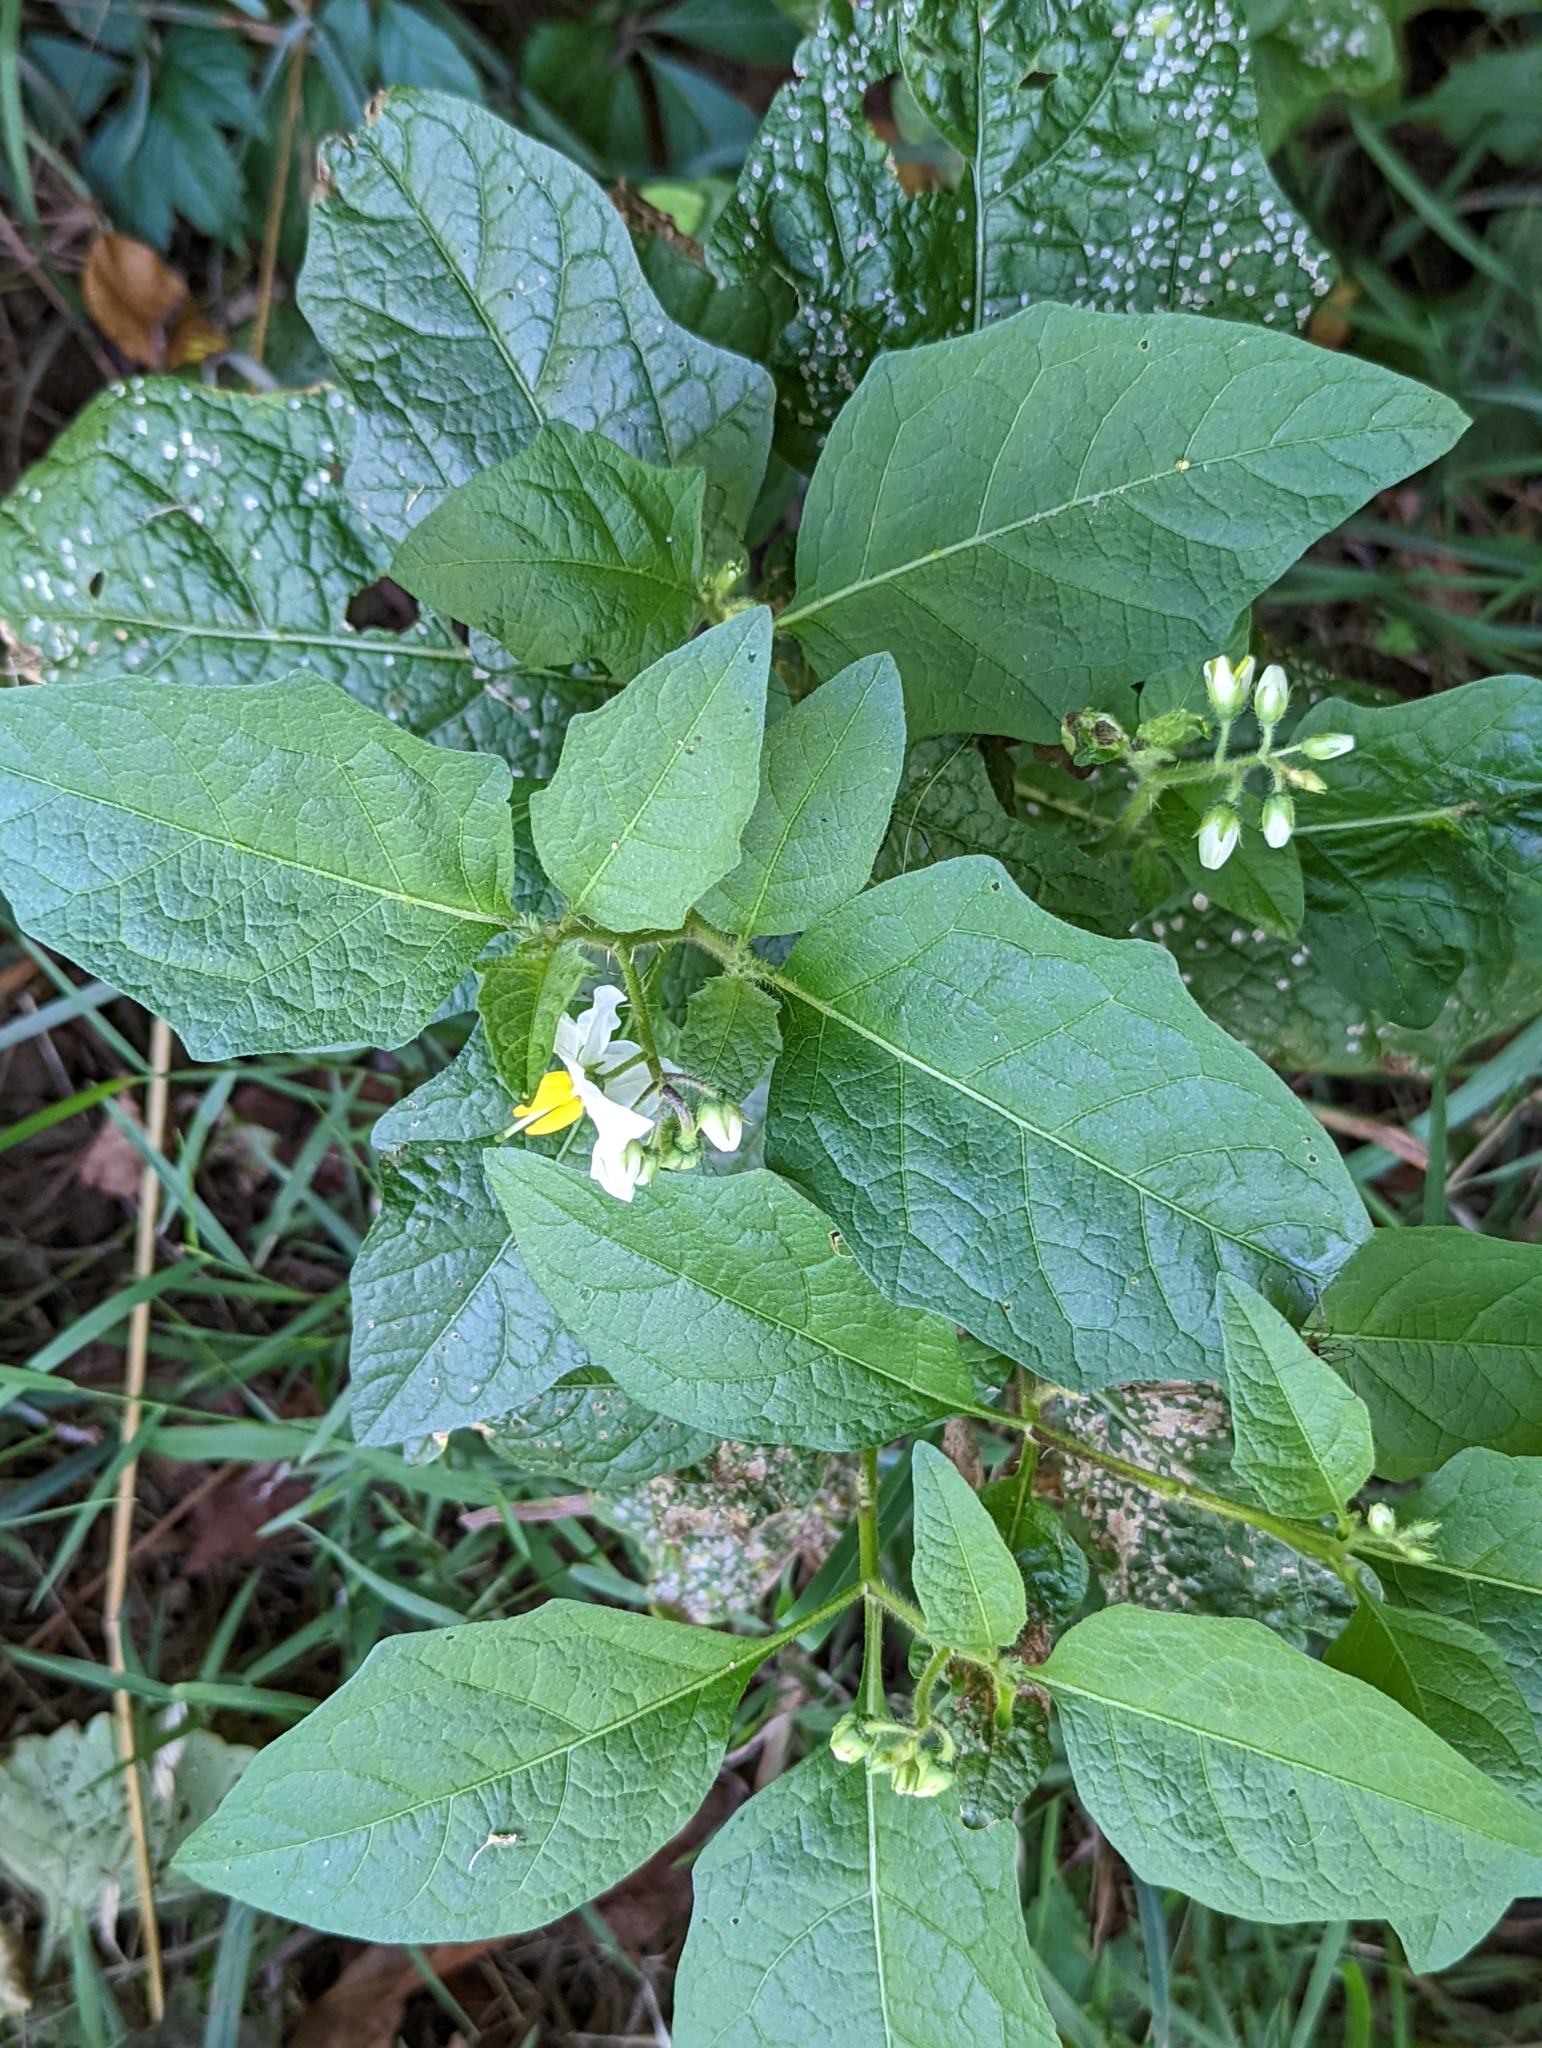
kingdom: Plantae
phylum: Tracheophyta
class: Magnoliopsida
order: Solanales
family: Solanaceae
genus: Solanum
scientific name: Solanum carolinense
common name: Horse-nettle
